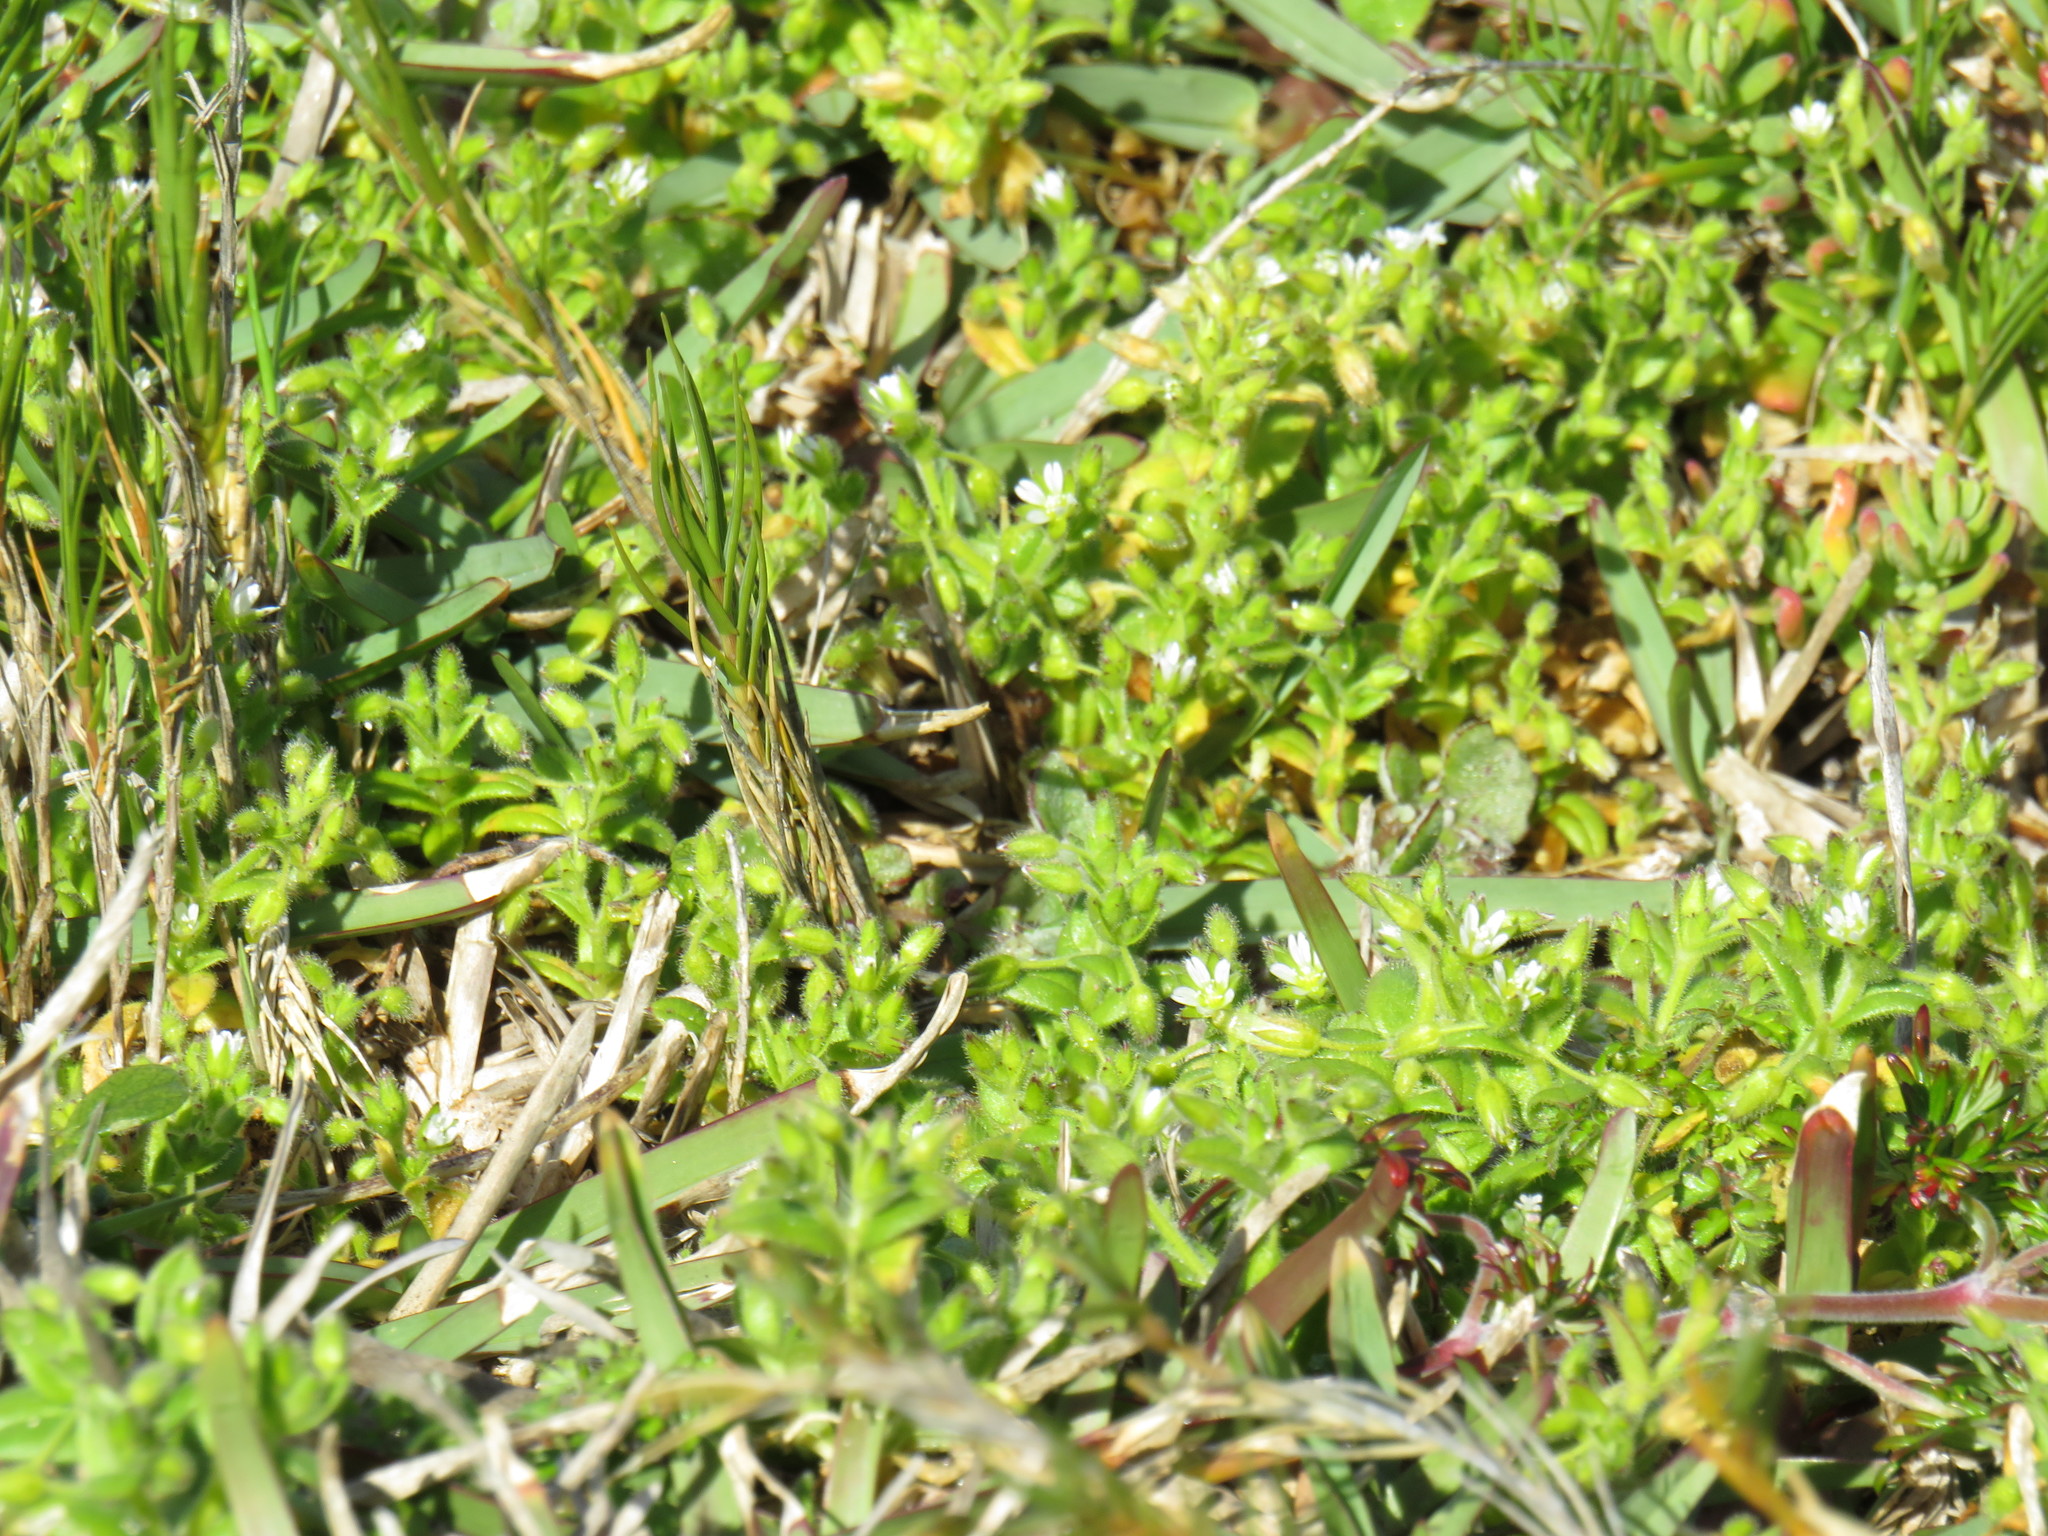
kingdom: Plantae
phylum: Tracheophyta
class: Magnoliopsida
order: Caryophyllales
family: Caryophyllaceae
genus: Cerastium
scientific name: Cerastium capense
